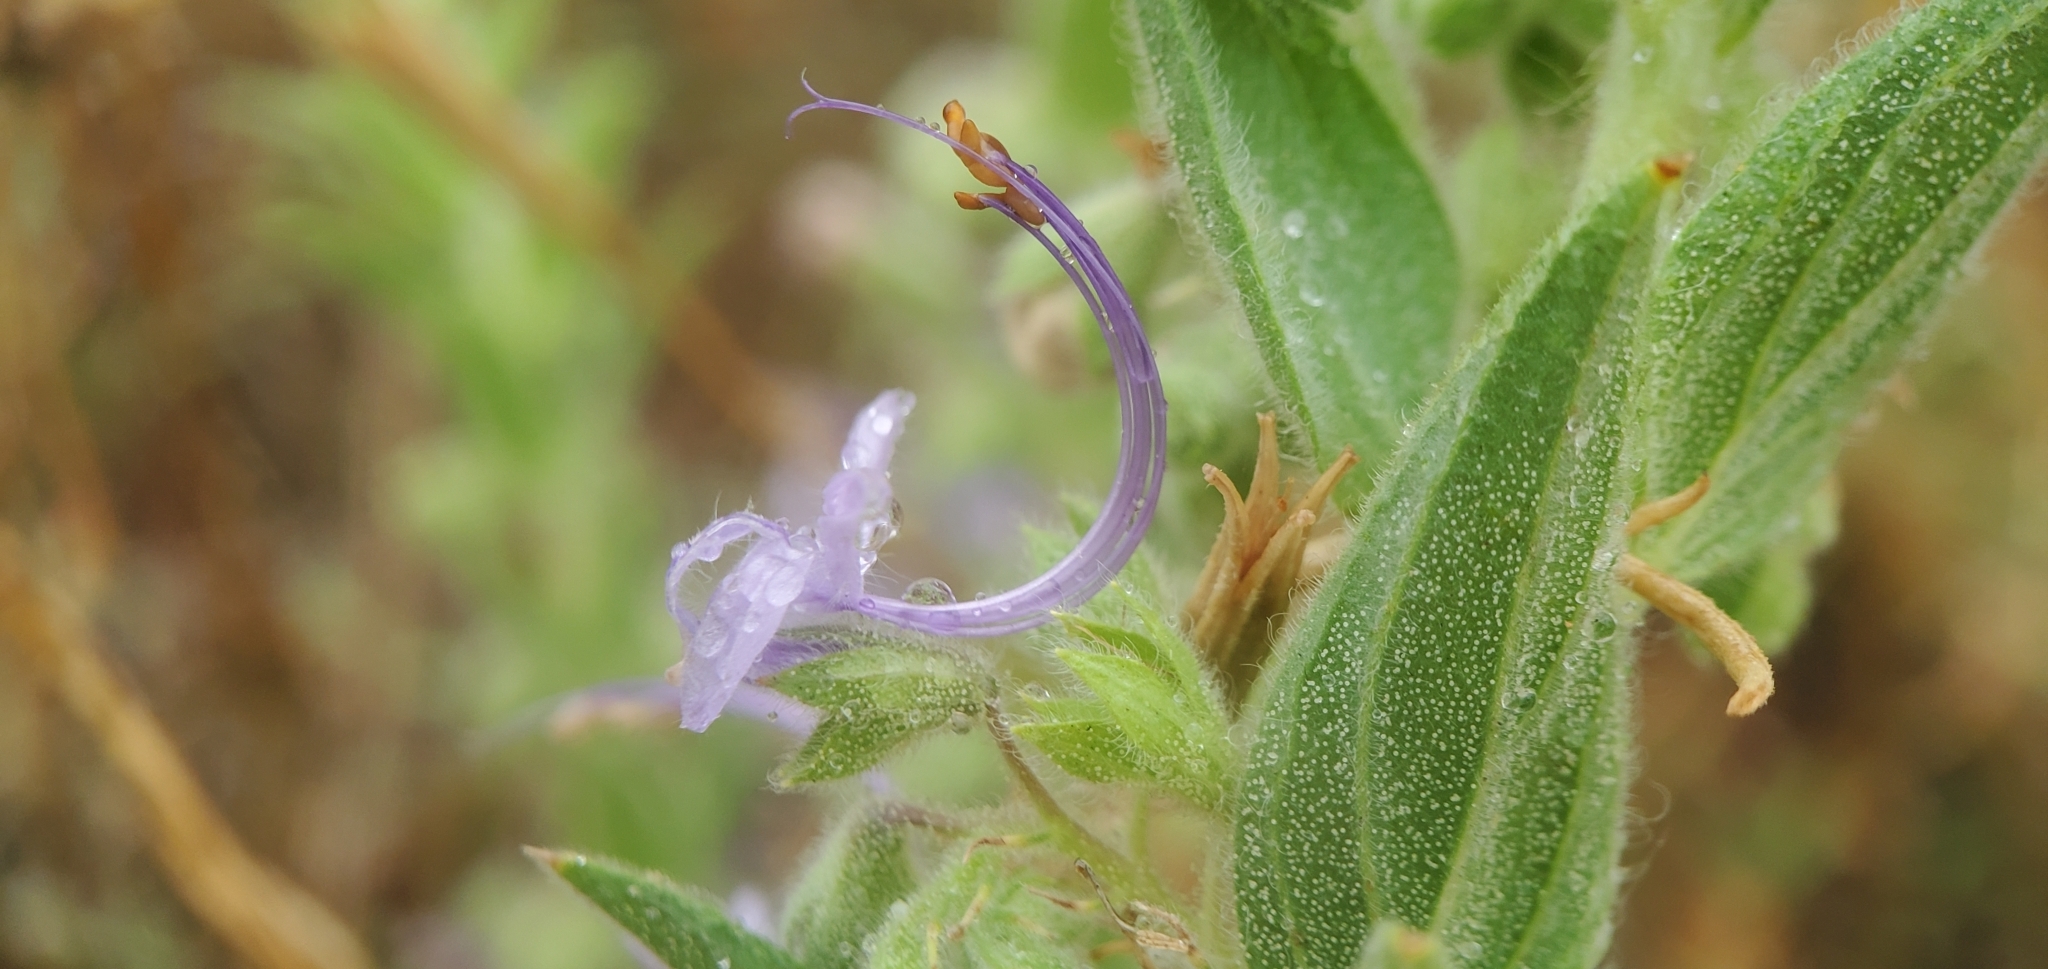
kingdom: Plantae
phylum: Tracheophyta
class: Magnoliopsida
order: Lamiales
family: Lamiaceae
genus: Trichostema
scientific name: Trichostema lanceolatum
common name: Vinegar-weed
